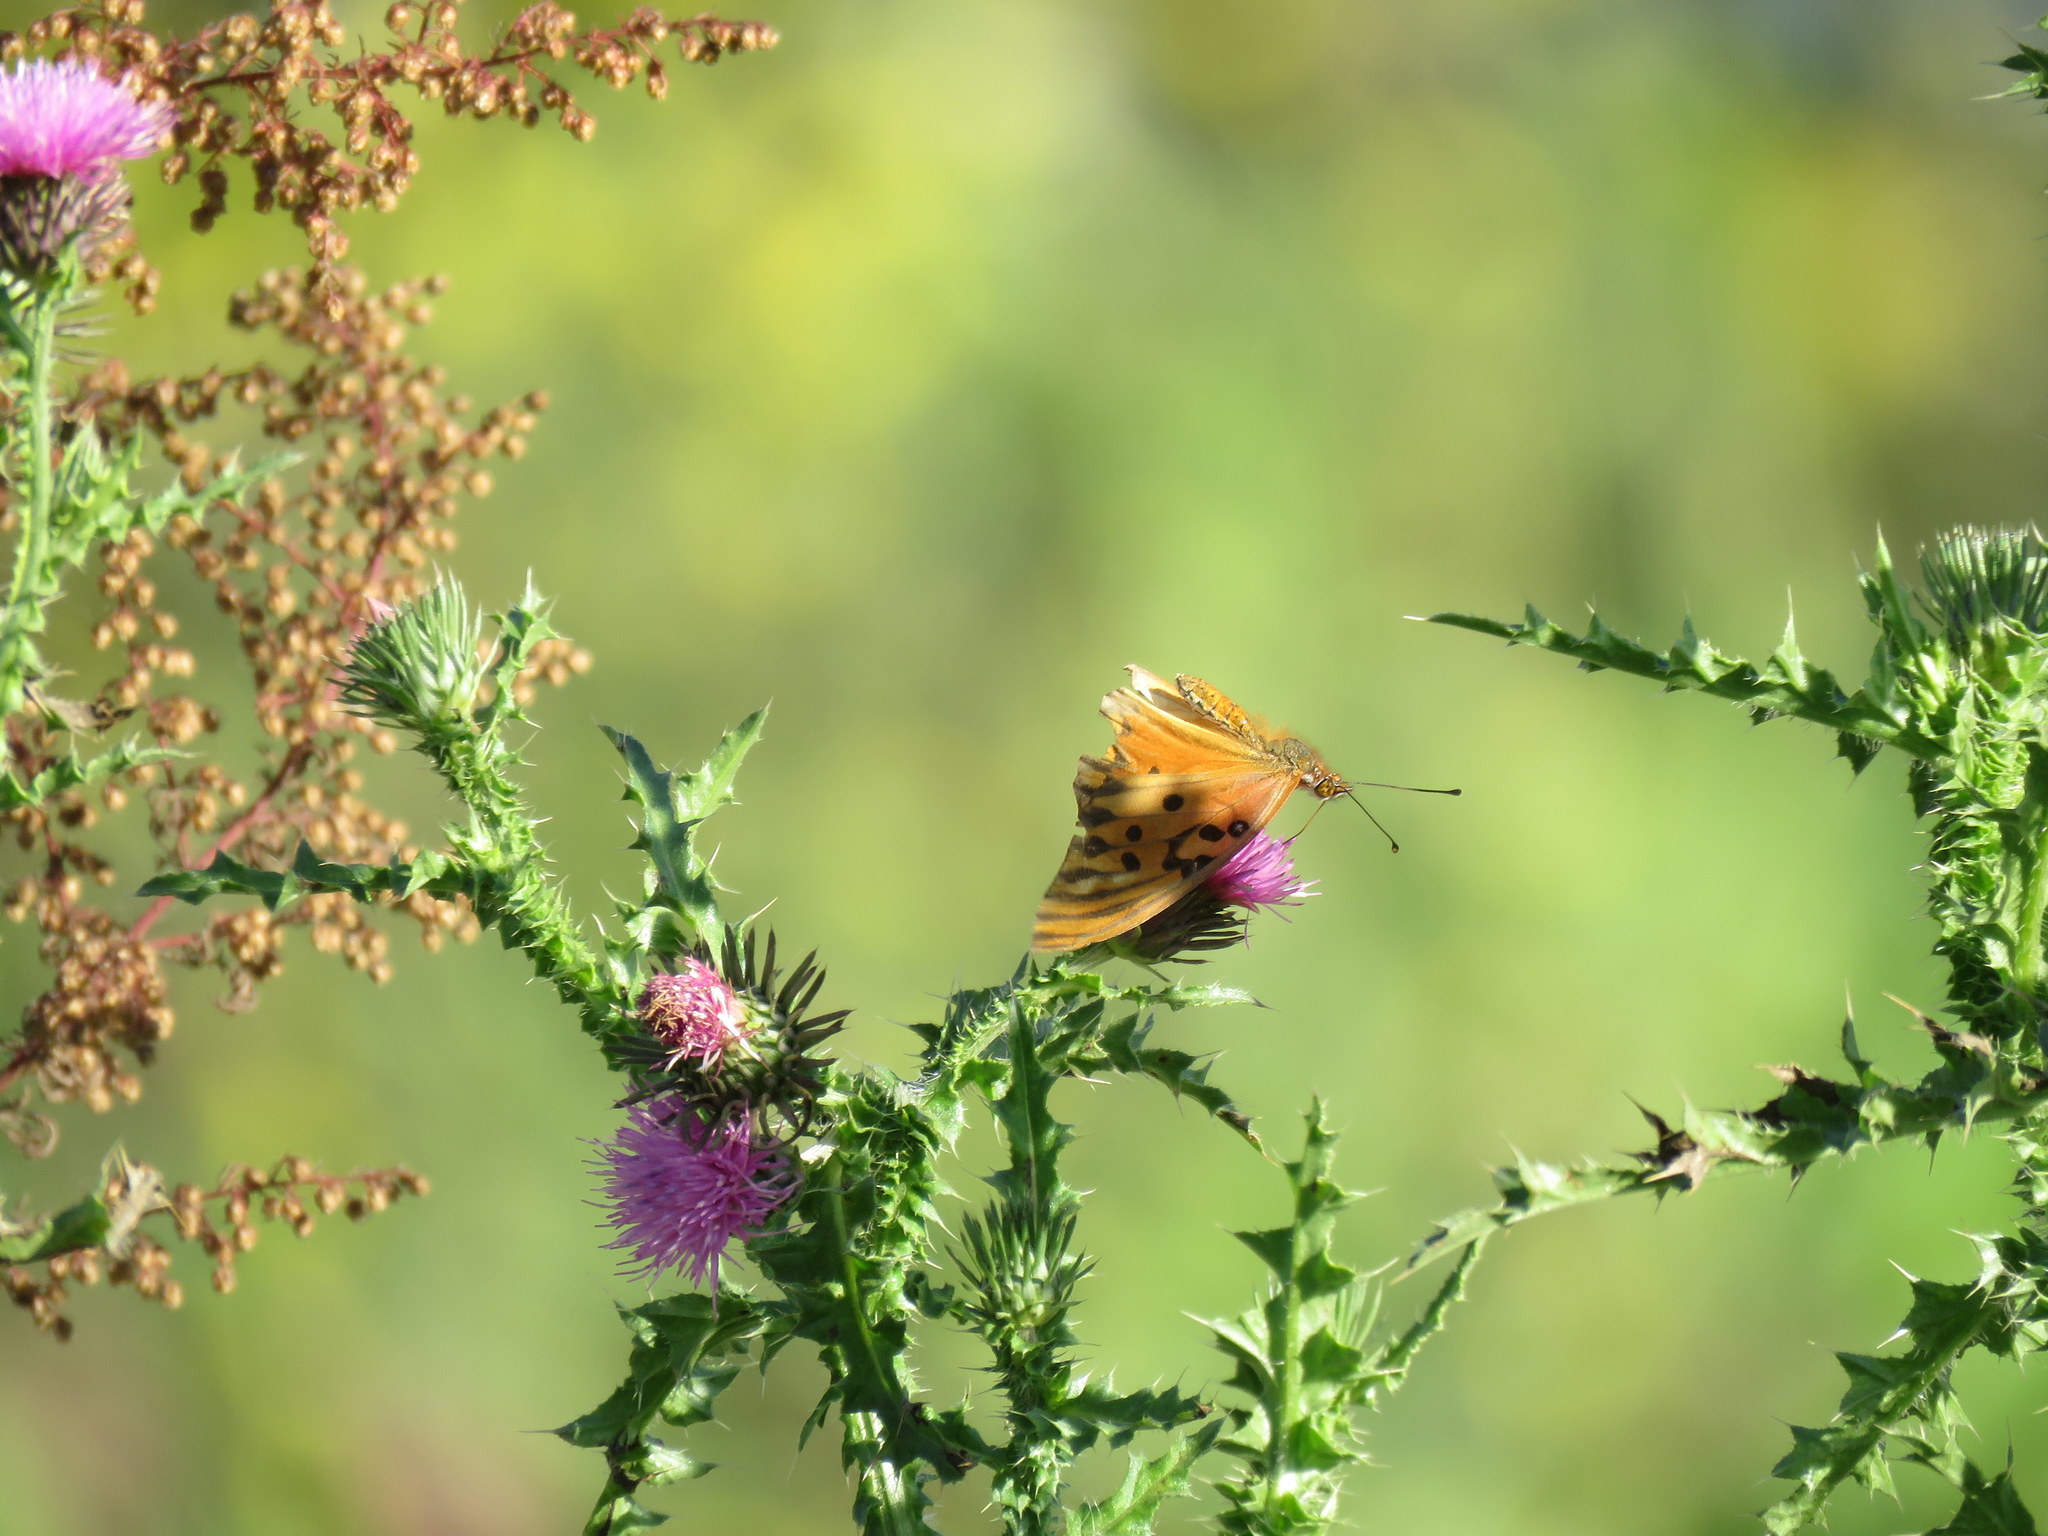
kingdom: Animalia
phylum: Arthropoda
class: Insecta
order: Lepidoptera
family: Nymphalidae
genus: Dione
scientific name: Dione vanillae
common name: Gulf fritillary
